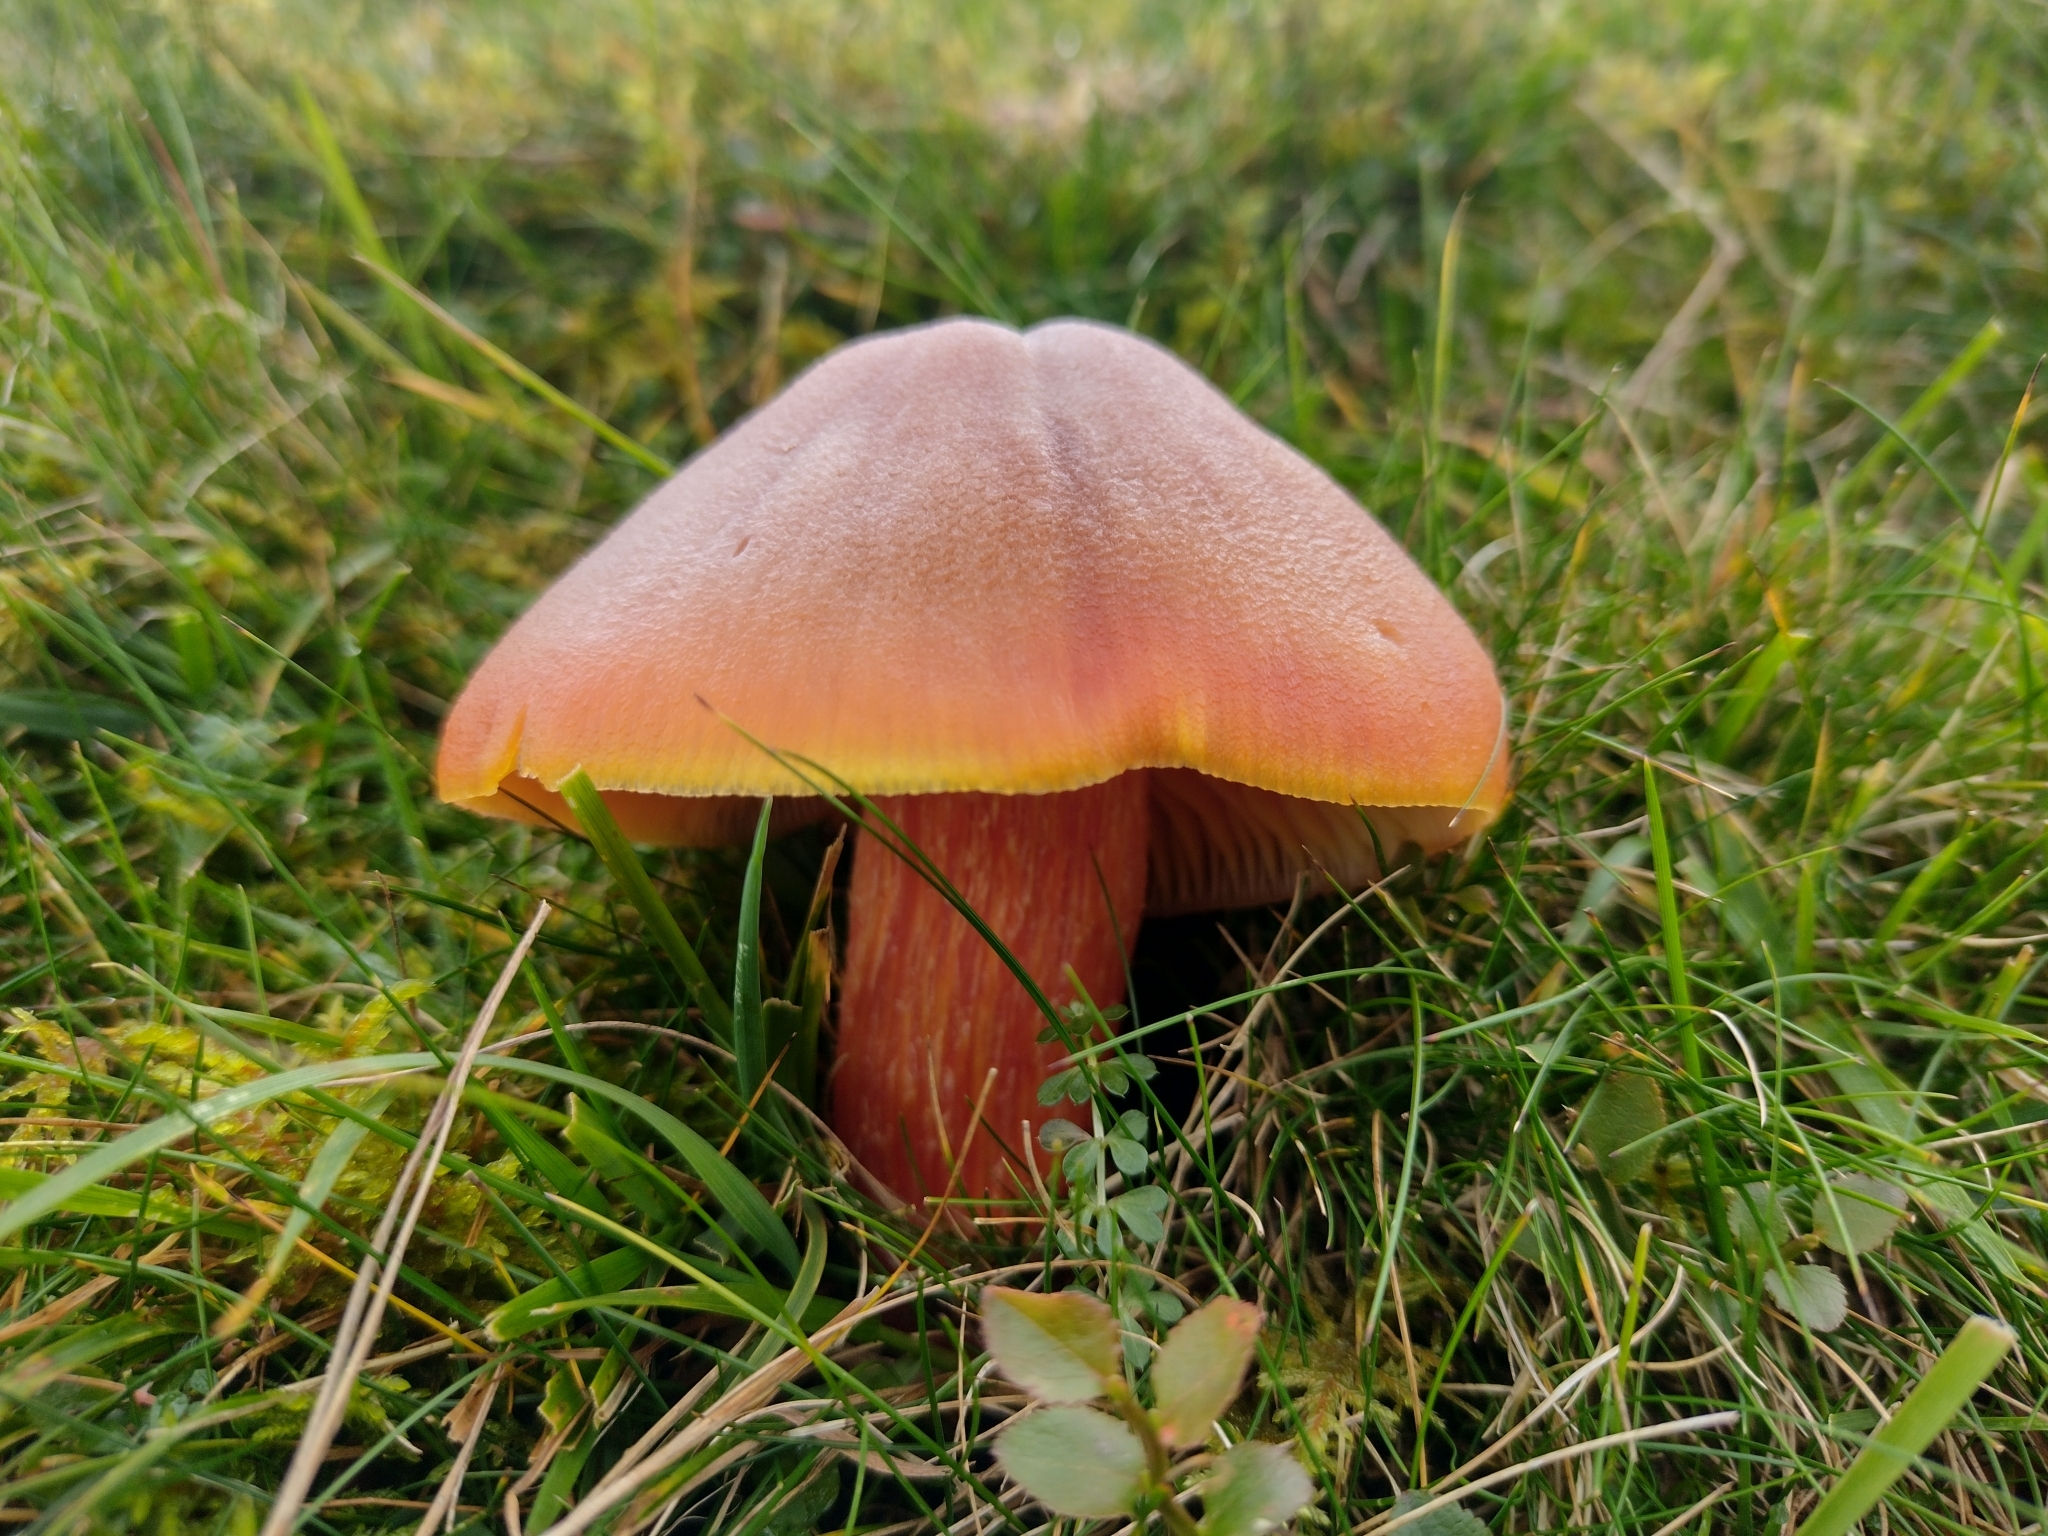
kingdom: Fungi
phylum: Basidiomycota
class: Agaricomycetes
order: Agaricales
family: Hygrophoraceae
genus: Hygrocybe
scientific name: Hygrocybe punicea
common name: Crimson waxcap
